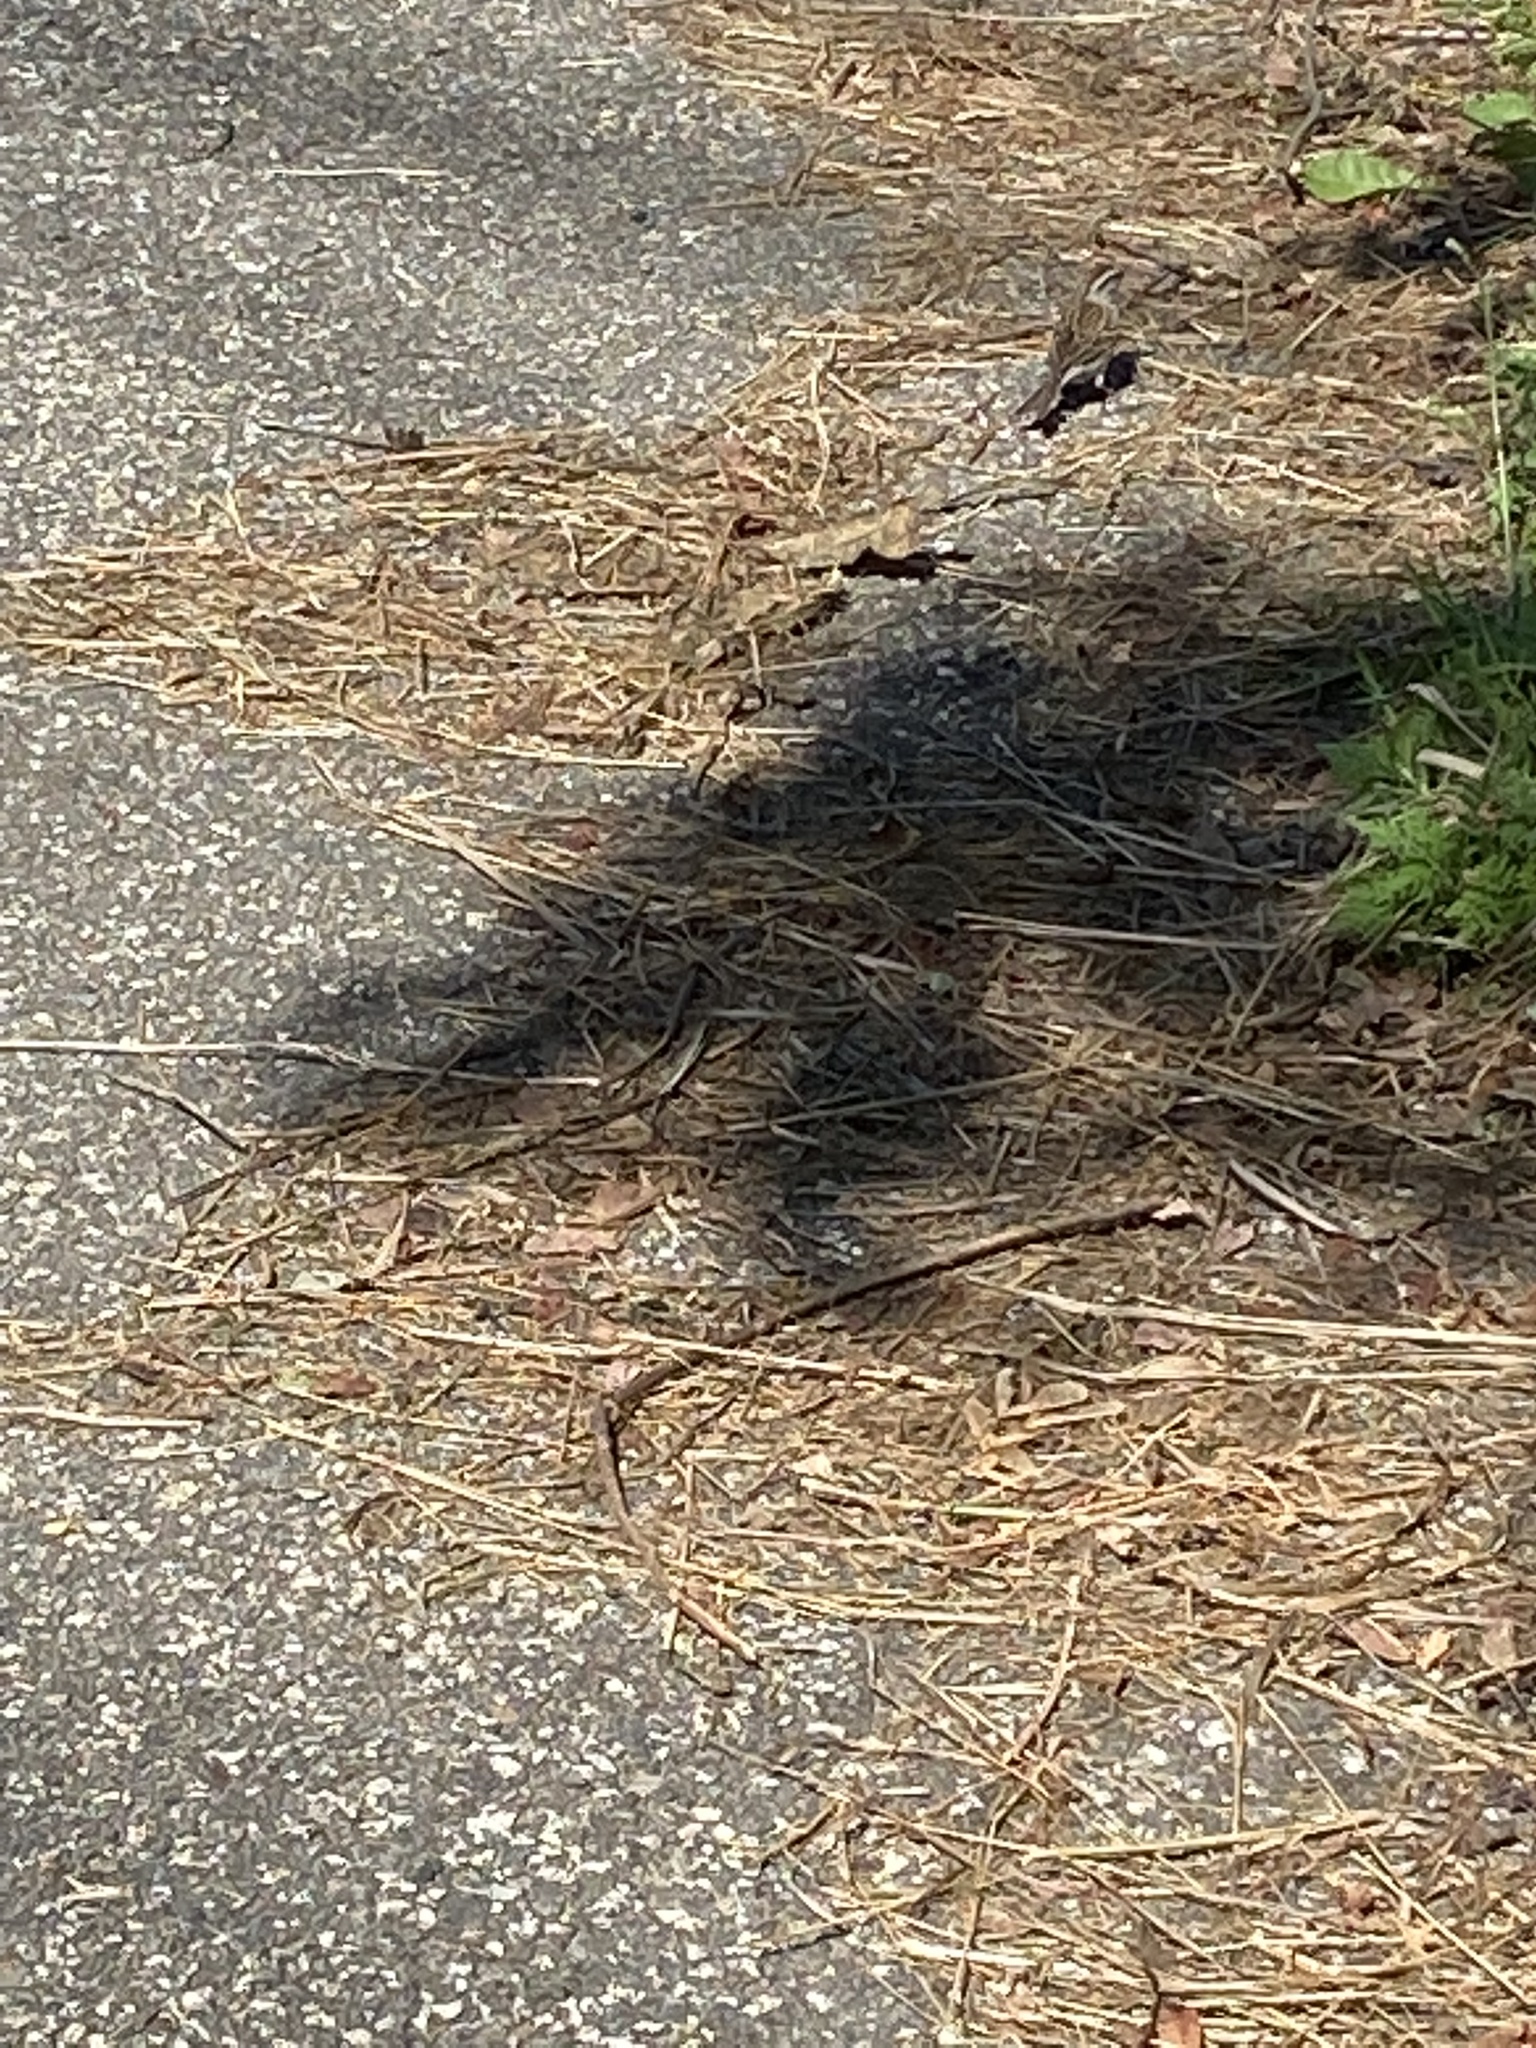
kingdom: Animalia
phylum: Chordata
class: Aves
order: Passeriformes
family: Passerellidae
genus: Spizella
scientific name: Spizella passerina
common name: Chipping sparrow
